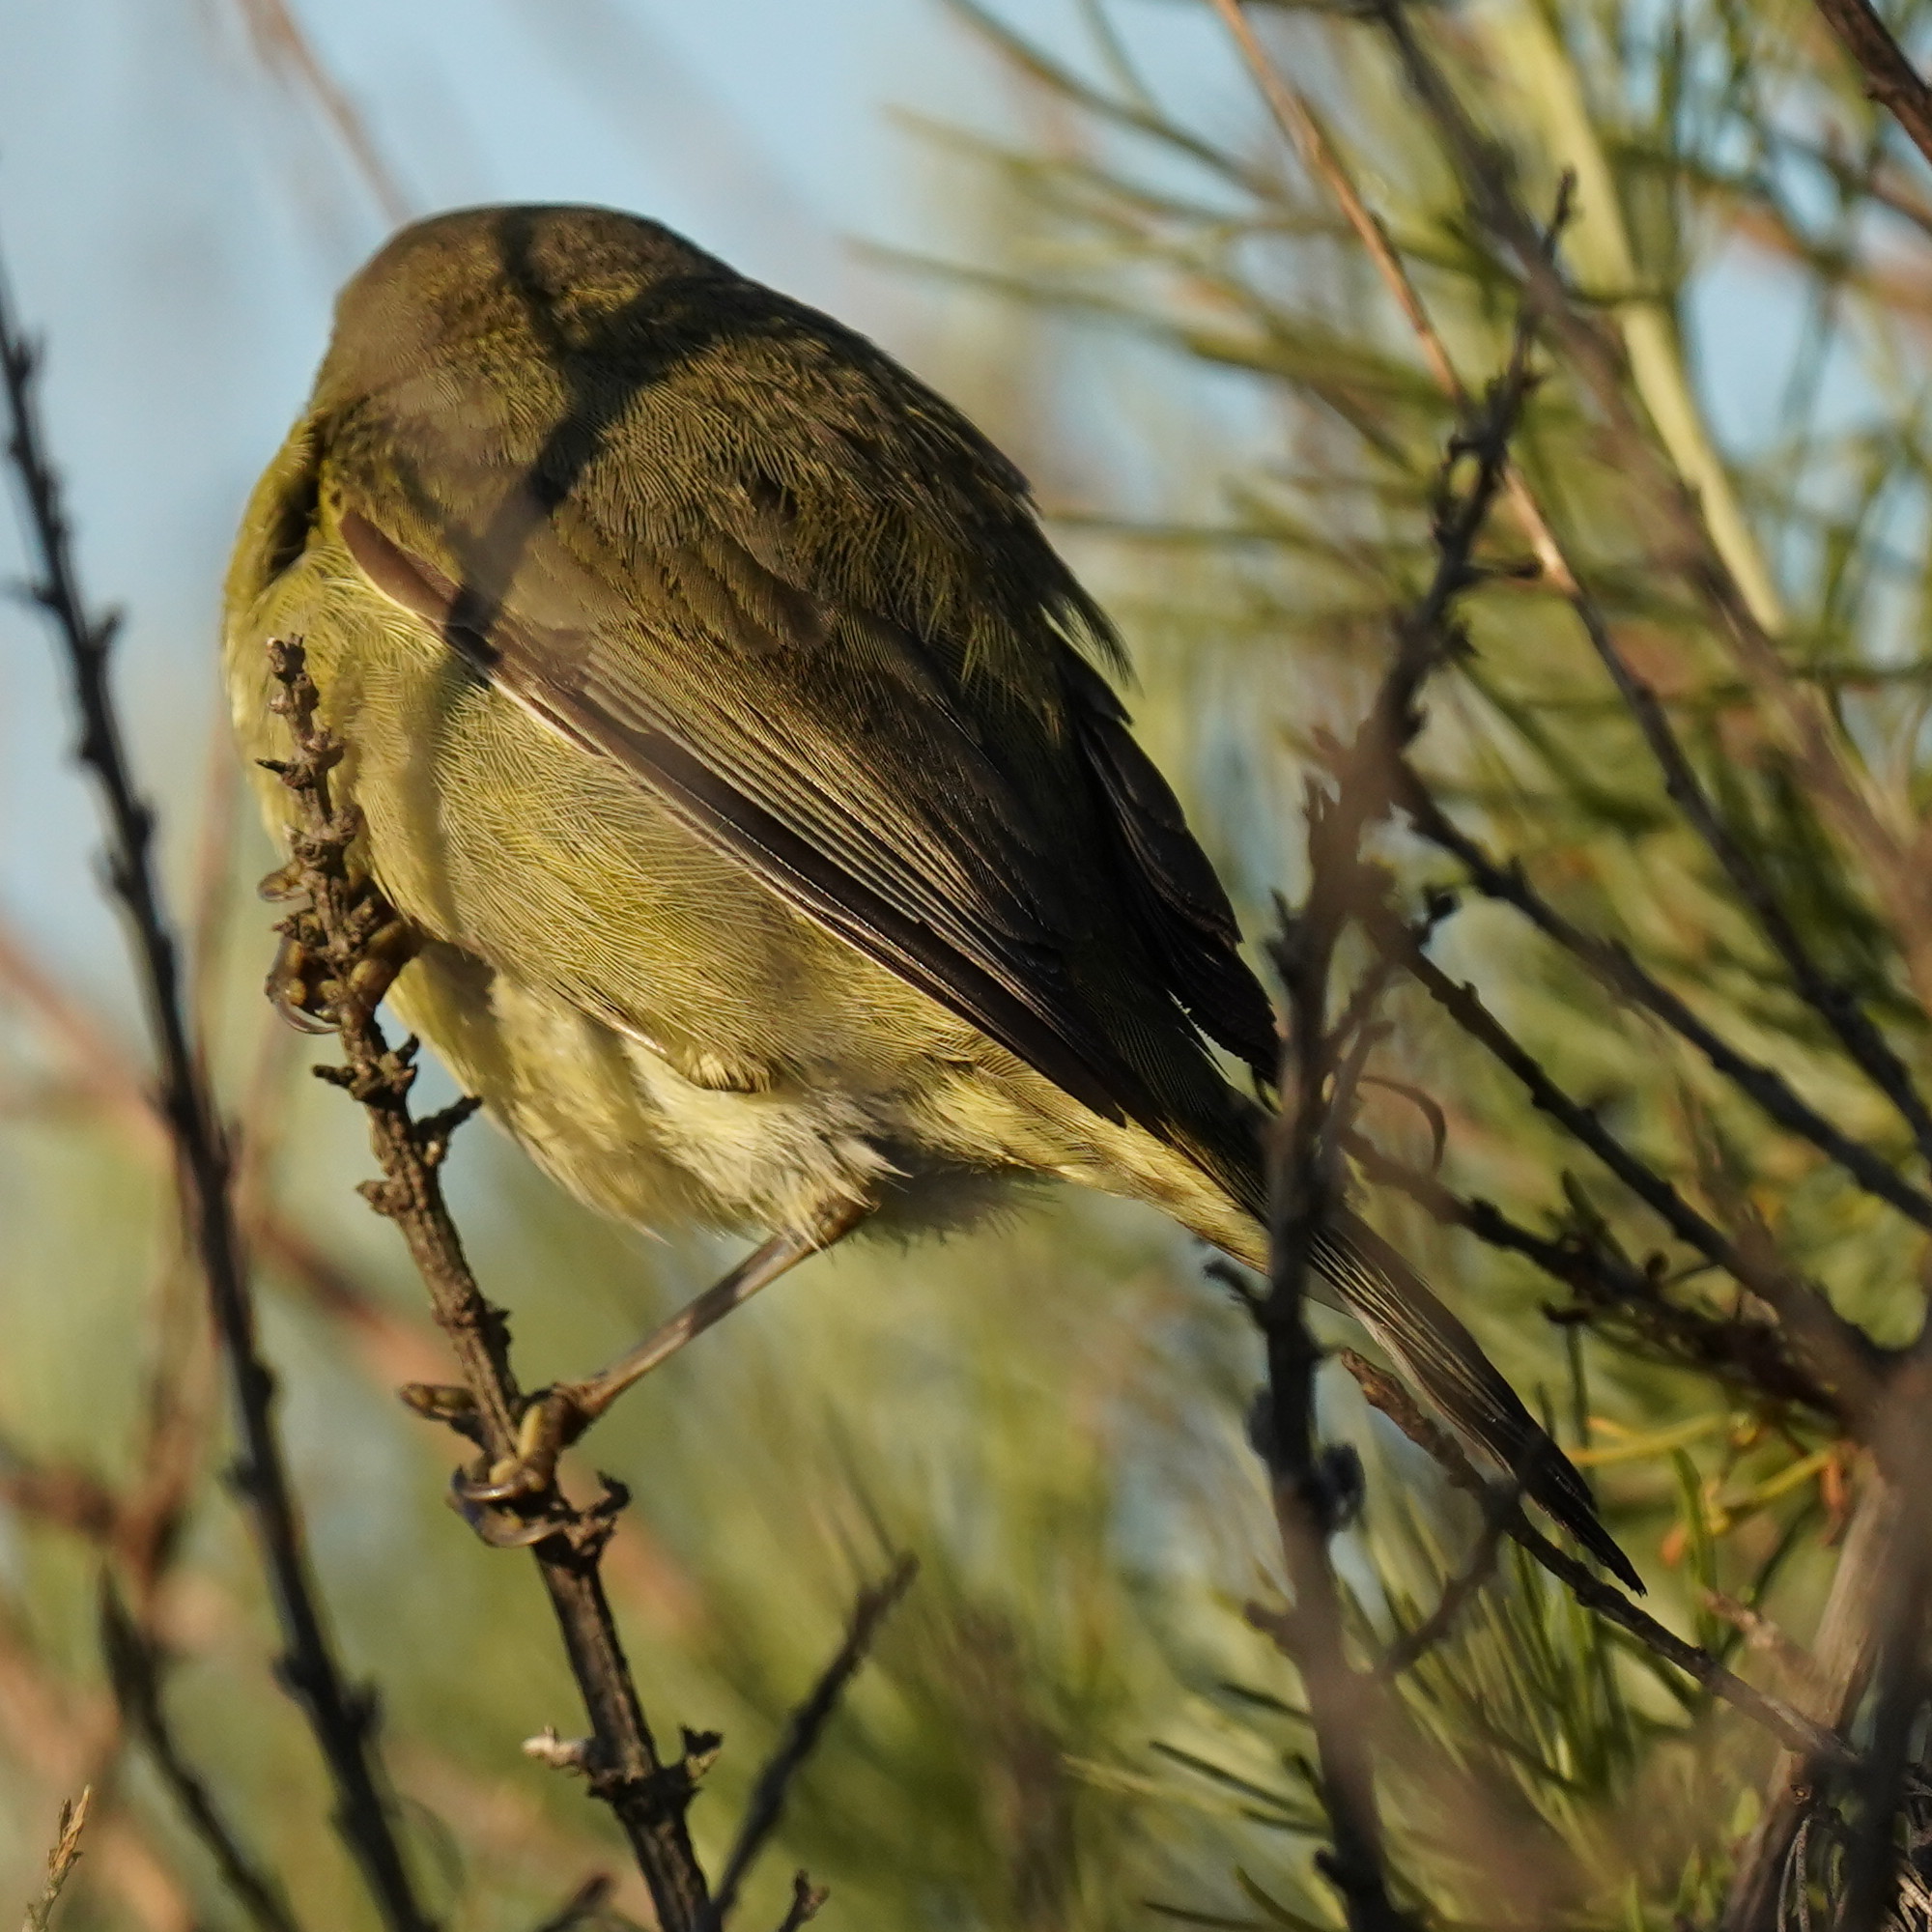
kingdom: Animalia
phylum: Chordata
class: Aves
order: Passeriformes
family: Parulidae
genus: Leiothlypis
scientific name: Leiothlypis celata
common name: Orange-crowned warbler
